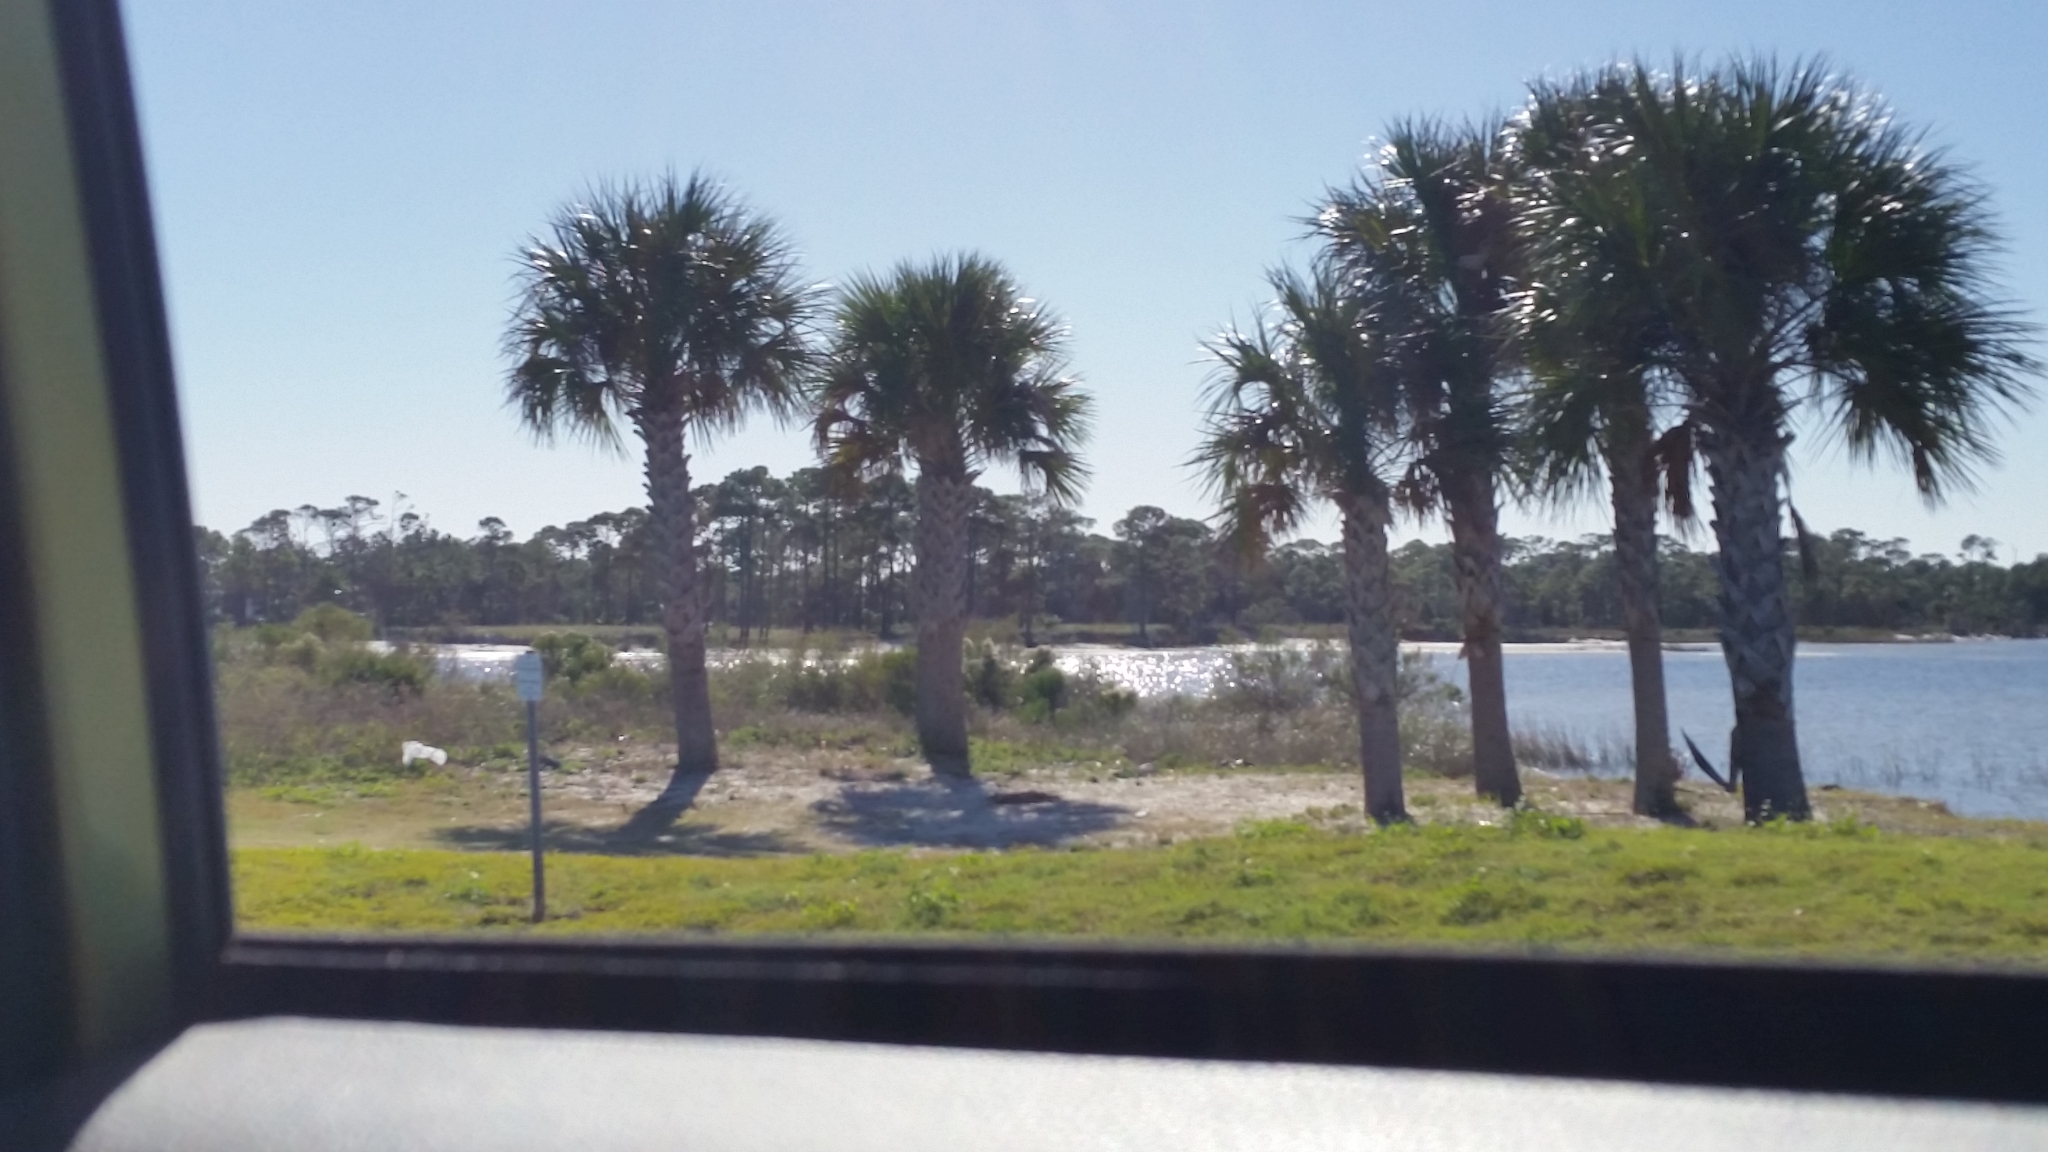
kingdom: Plantae
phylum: Tracheophyta
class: Liliopsida
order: Arecales
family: Arecaceae
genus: Sabal
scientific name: Sabal palmetto
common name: Blue palmetto
